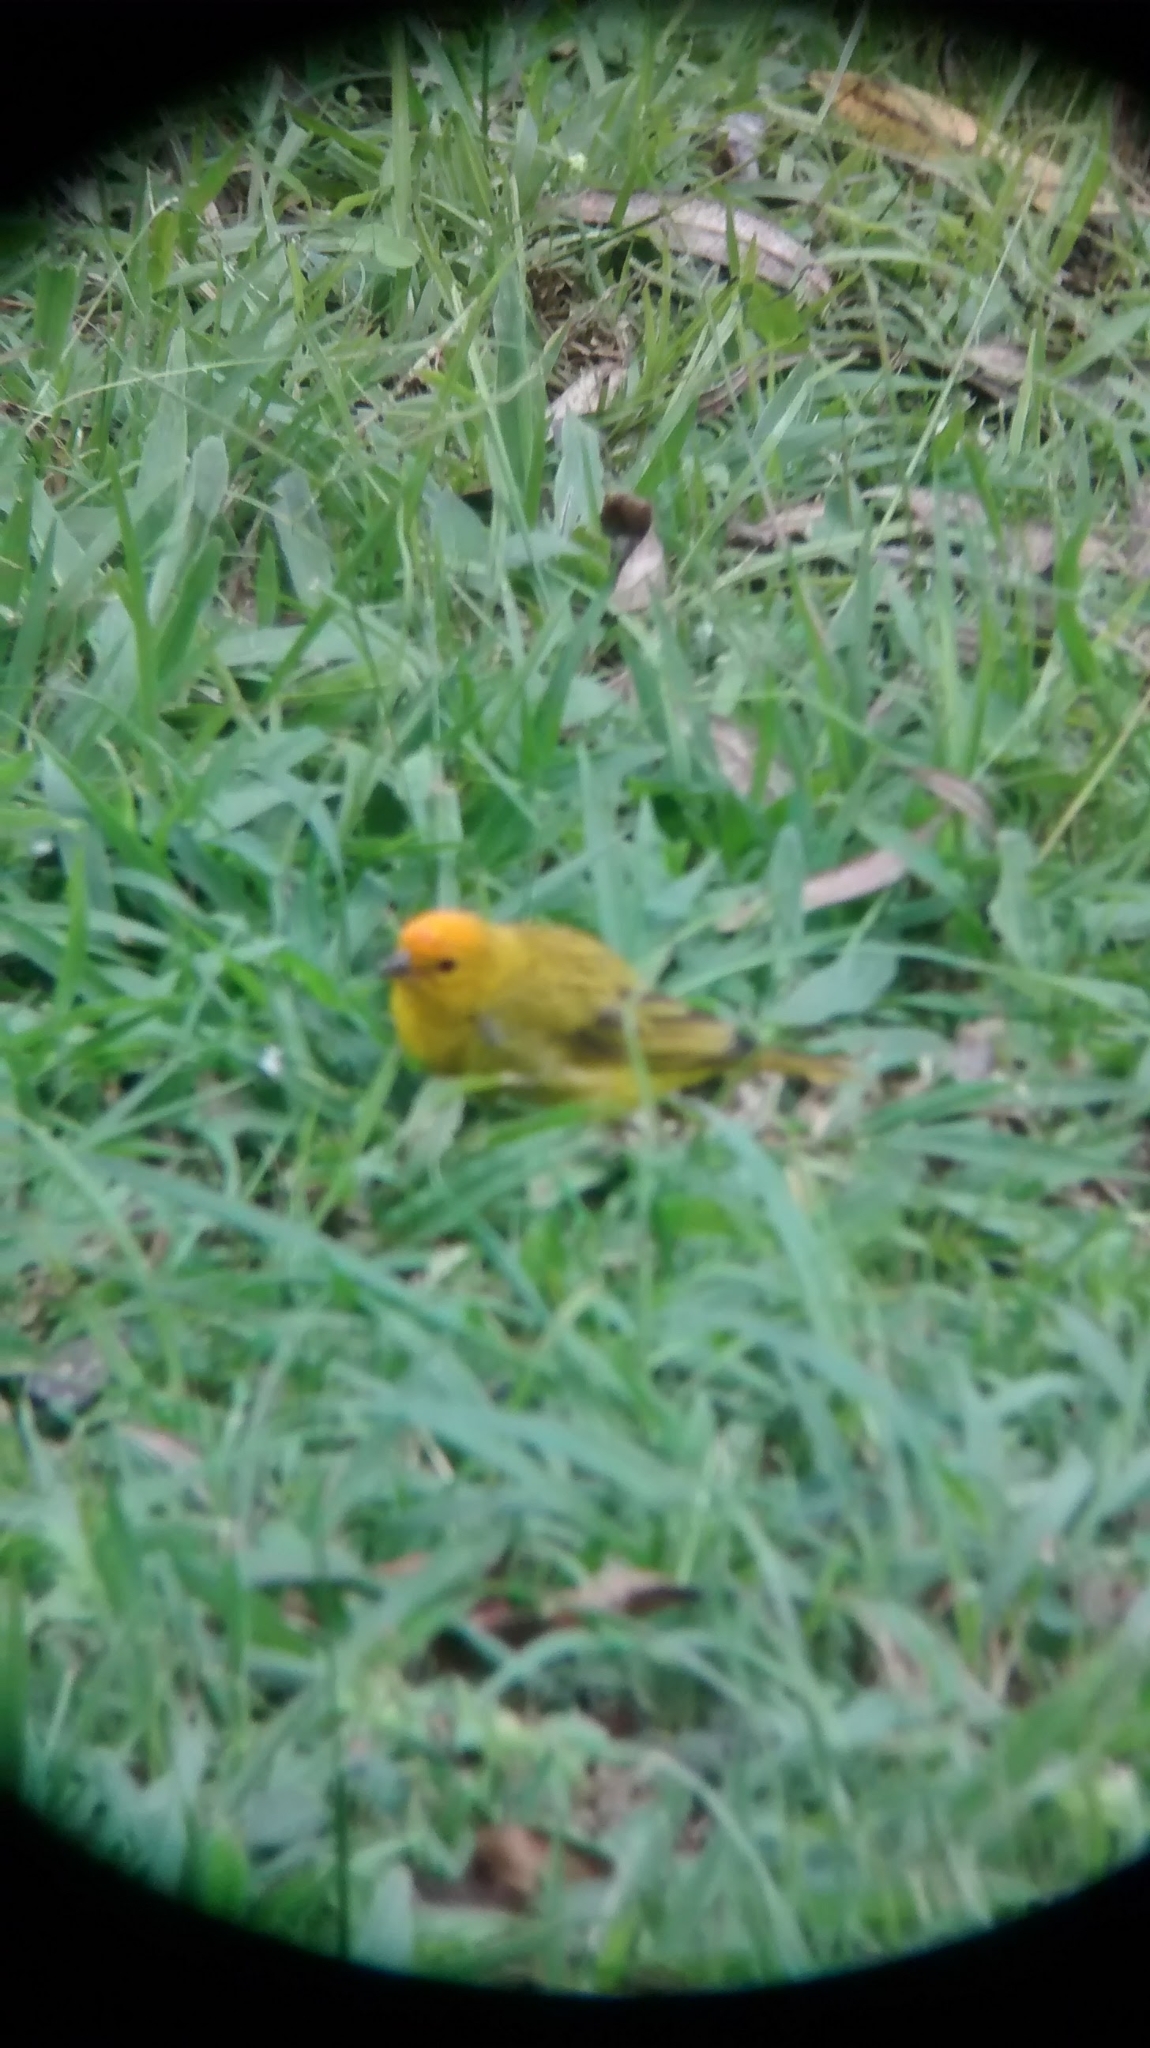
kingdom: Animalia
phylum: Chordata
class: Aves
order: Passeriformes
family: Thraupidae
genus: Sicalis
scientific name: Sicalis flaveola
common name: Saffron finch
